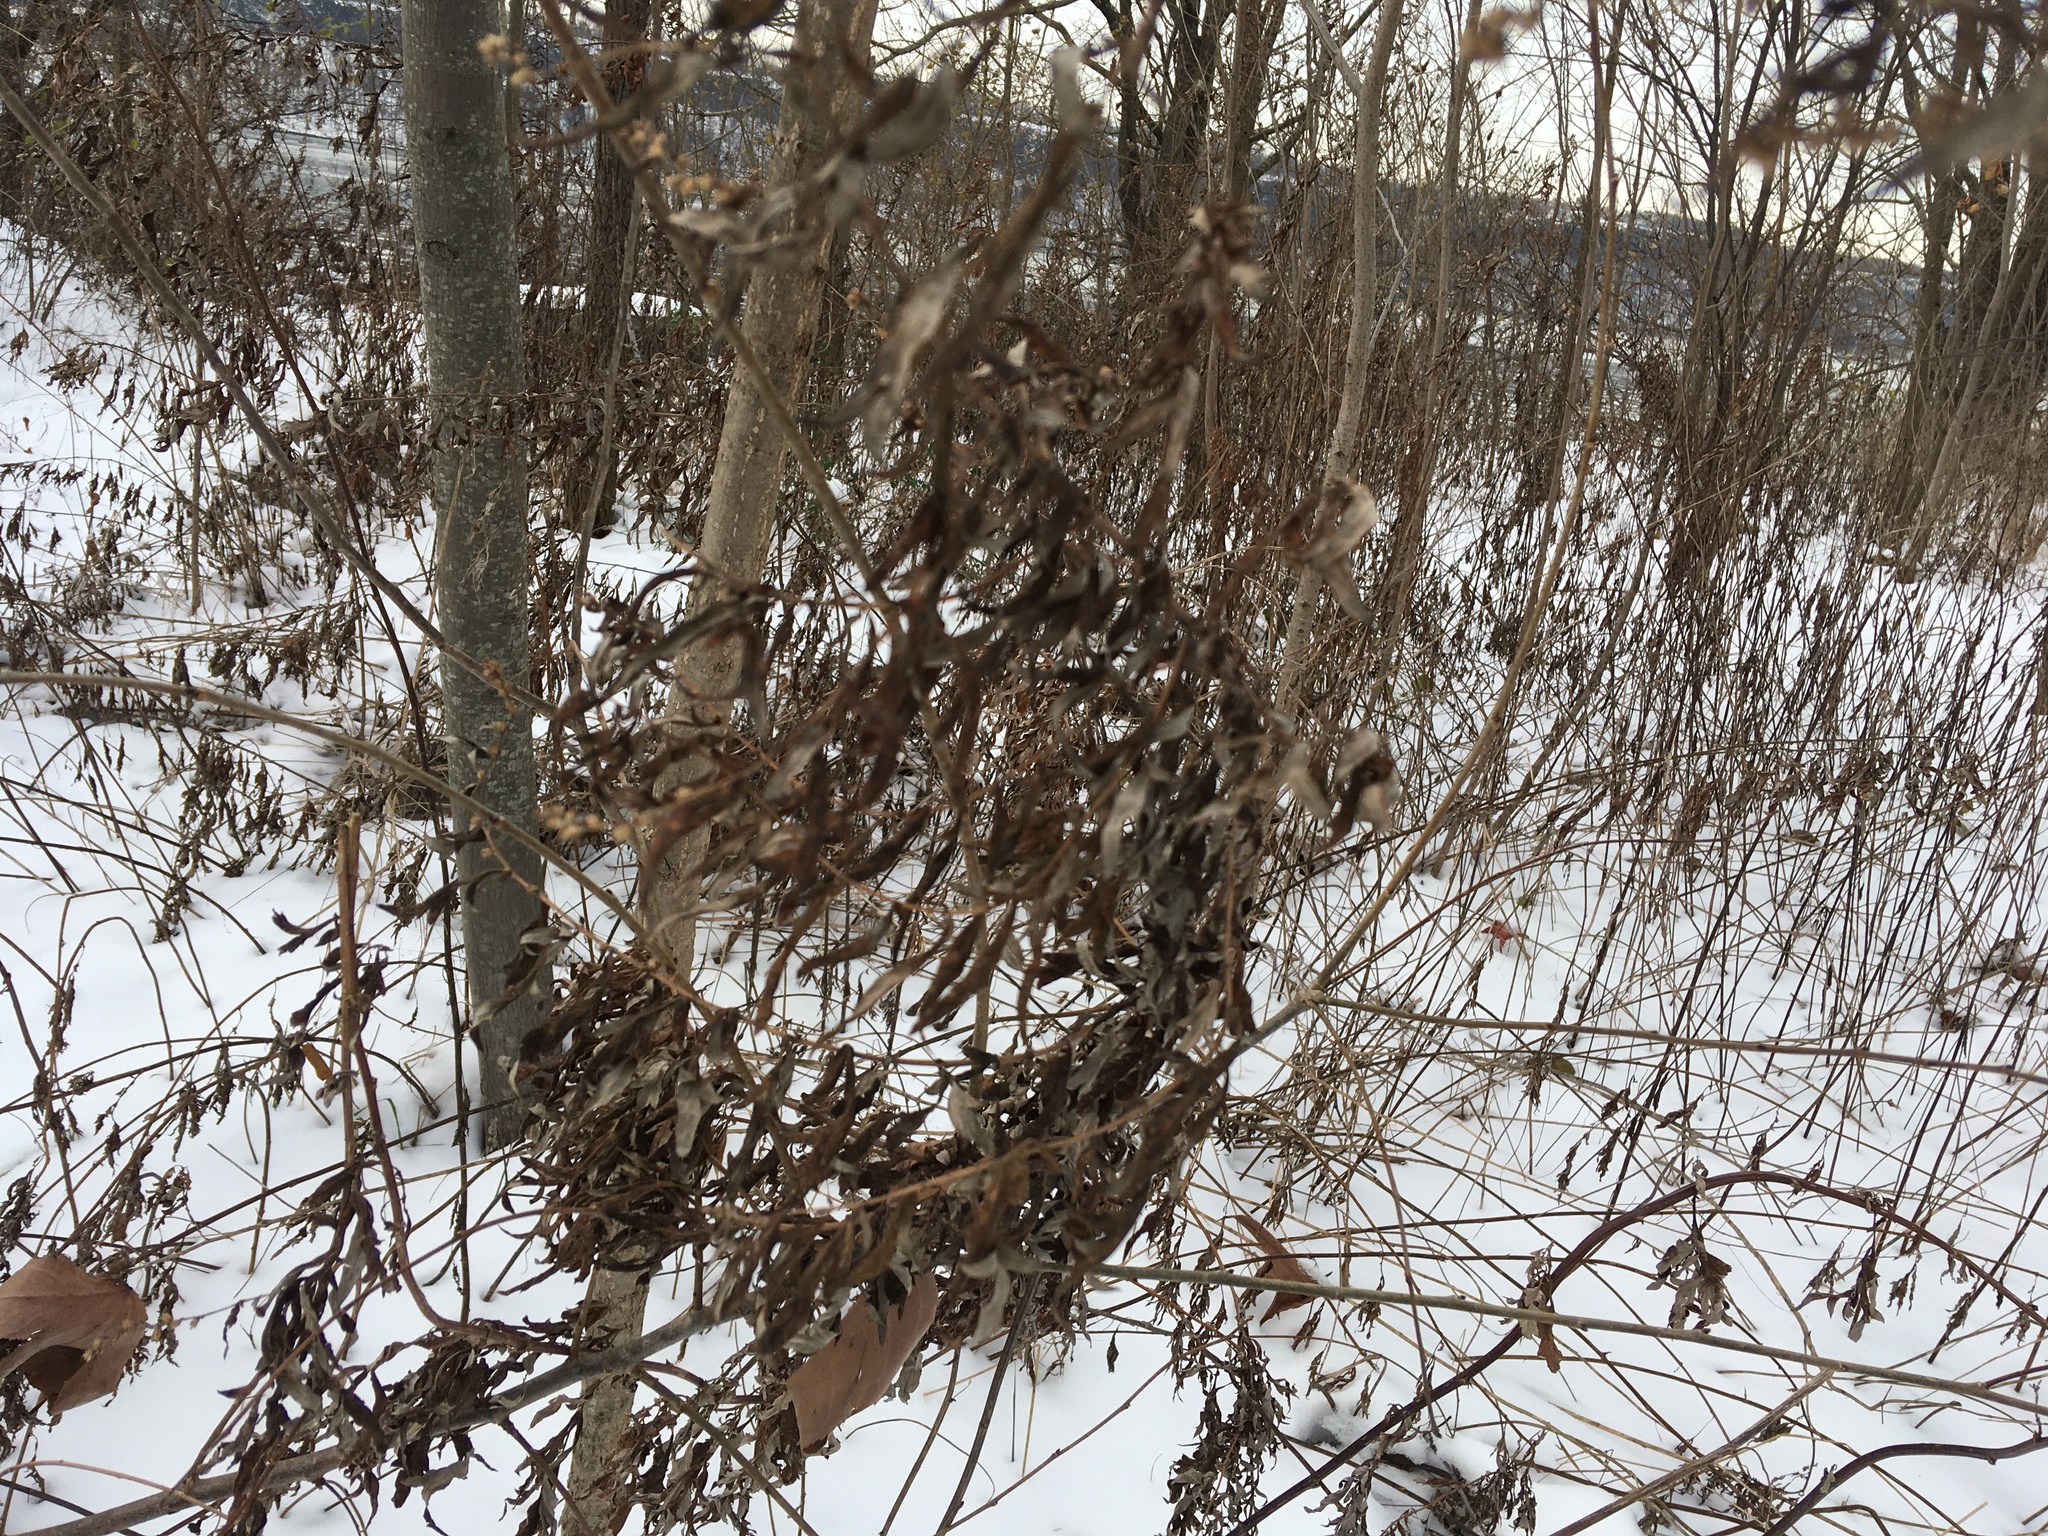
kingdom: Plantae
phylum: Tracheophyta
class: Magnoliopsida
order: Asterales
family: Asteraceae
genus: Artemisia
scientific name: Artemisia vulgaris
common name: Mugwort
